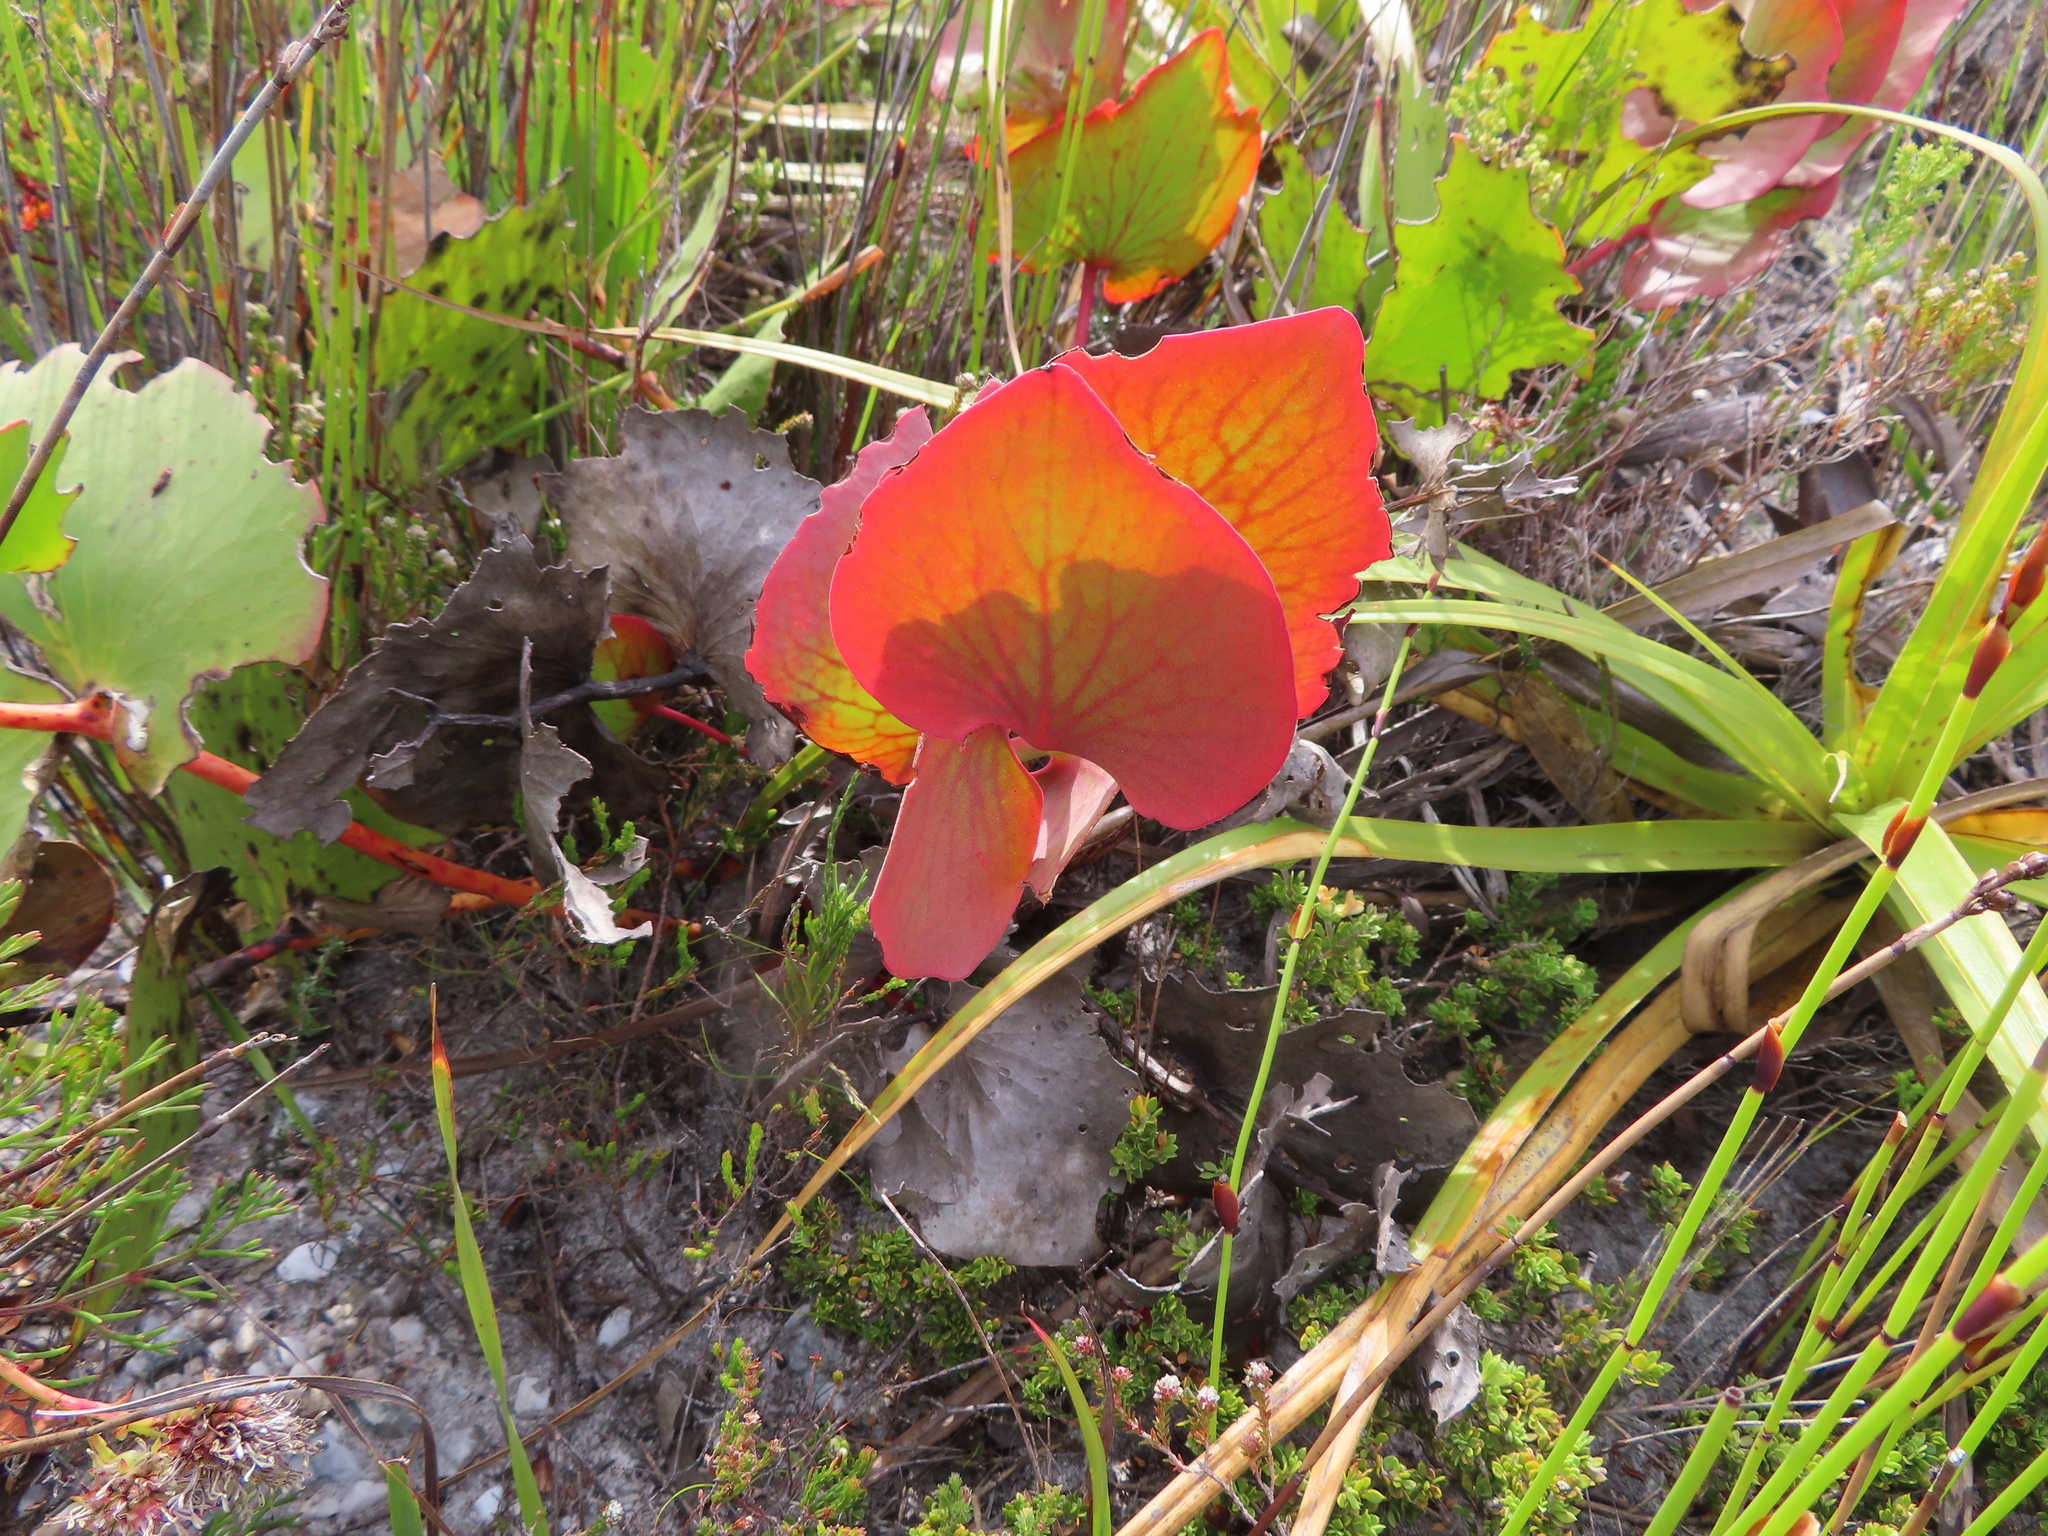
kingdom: Plantae
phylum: Tracheophyta
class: Magnoliopsida
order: Proteales
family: Proteaceae
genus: Protea
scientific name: Protea cordata
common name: Heart-leaf sugarbush
